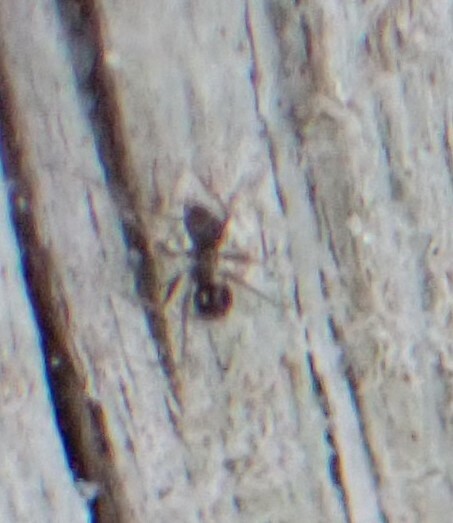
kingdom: Animalia
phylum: Arthropoda
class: Insecta
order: Hymenoptera
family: Formicidae
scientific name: Formicidae
